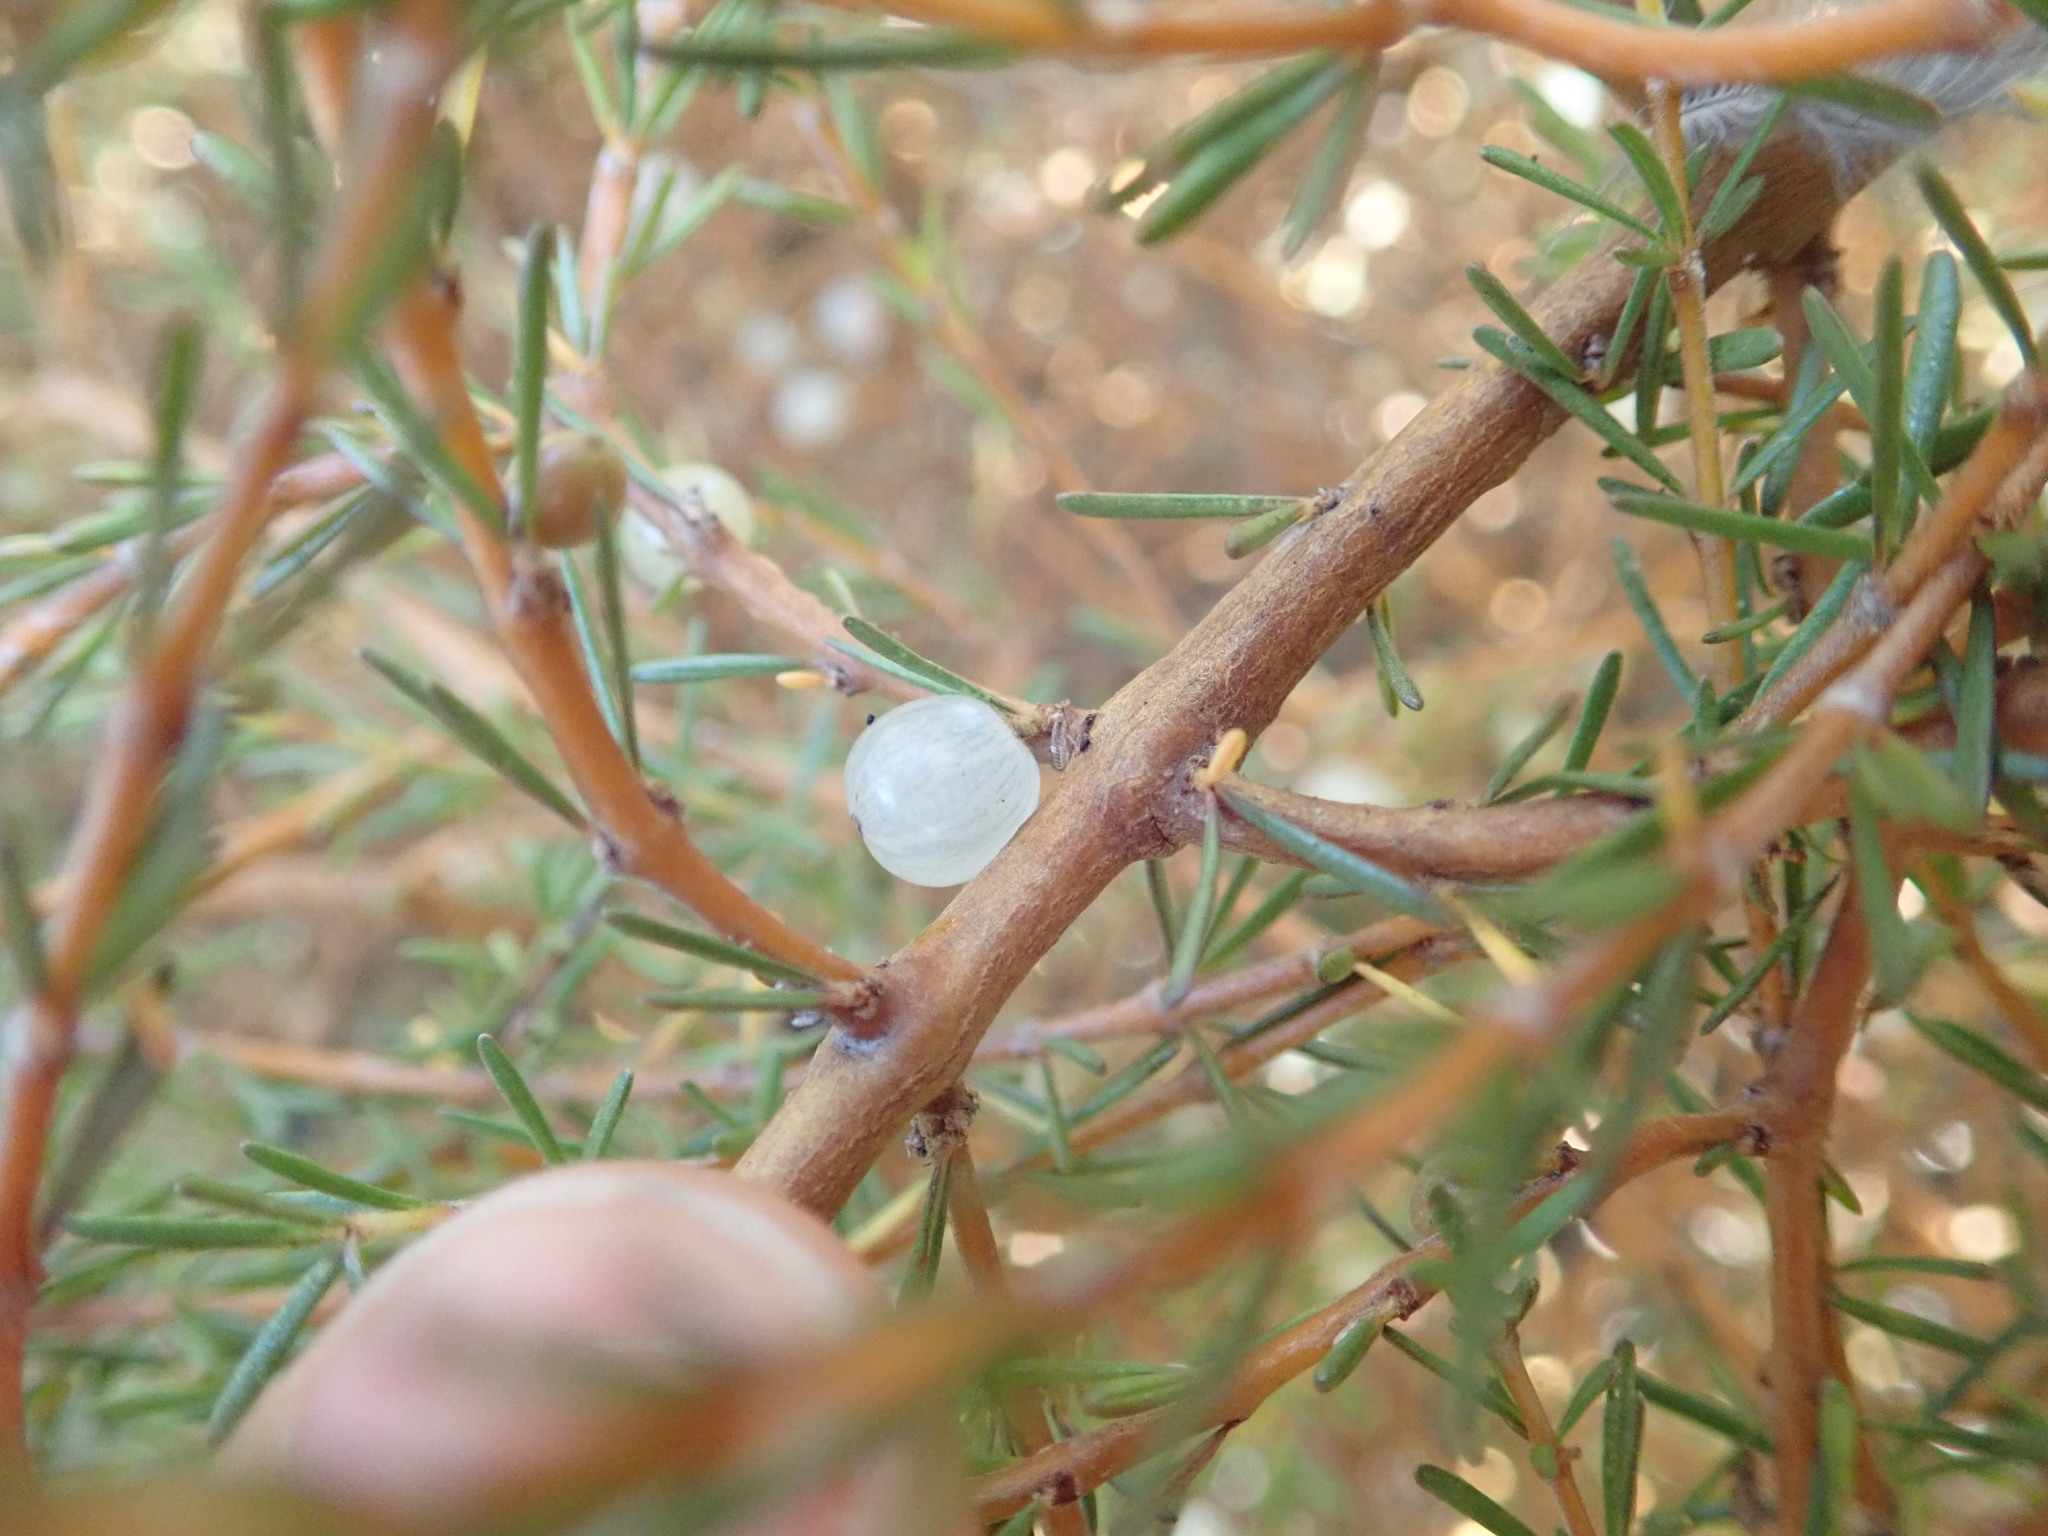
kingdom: Plantae
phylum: Tracheophyta
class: Magnoliopsida
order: Gentianales
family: Rubiaceae
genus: Coprosma
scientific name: Coprosma acerosa
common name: Sand coprosma
